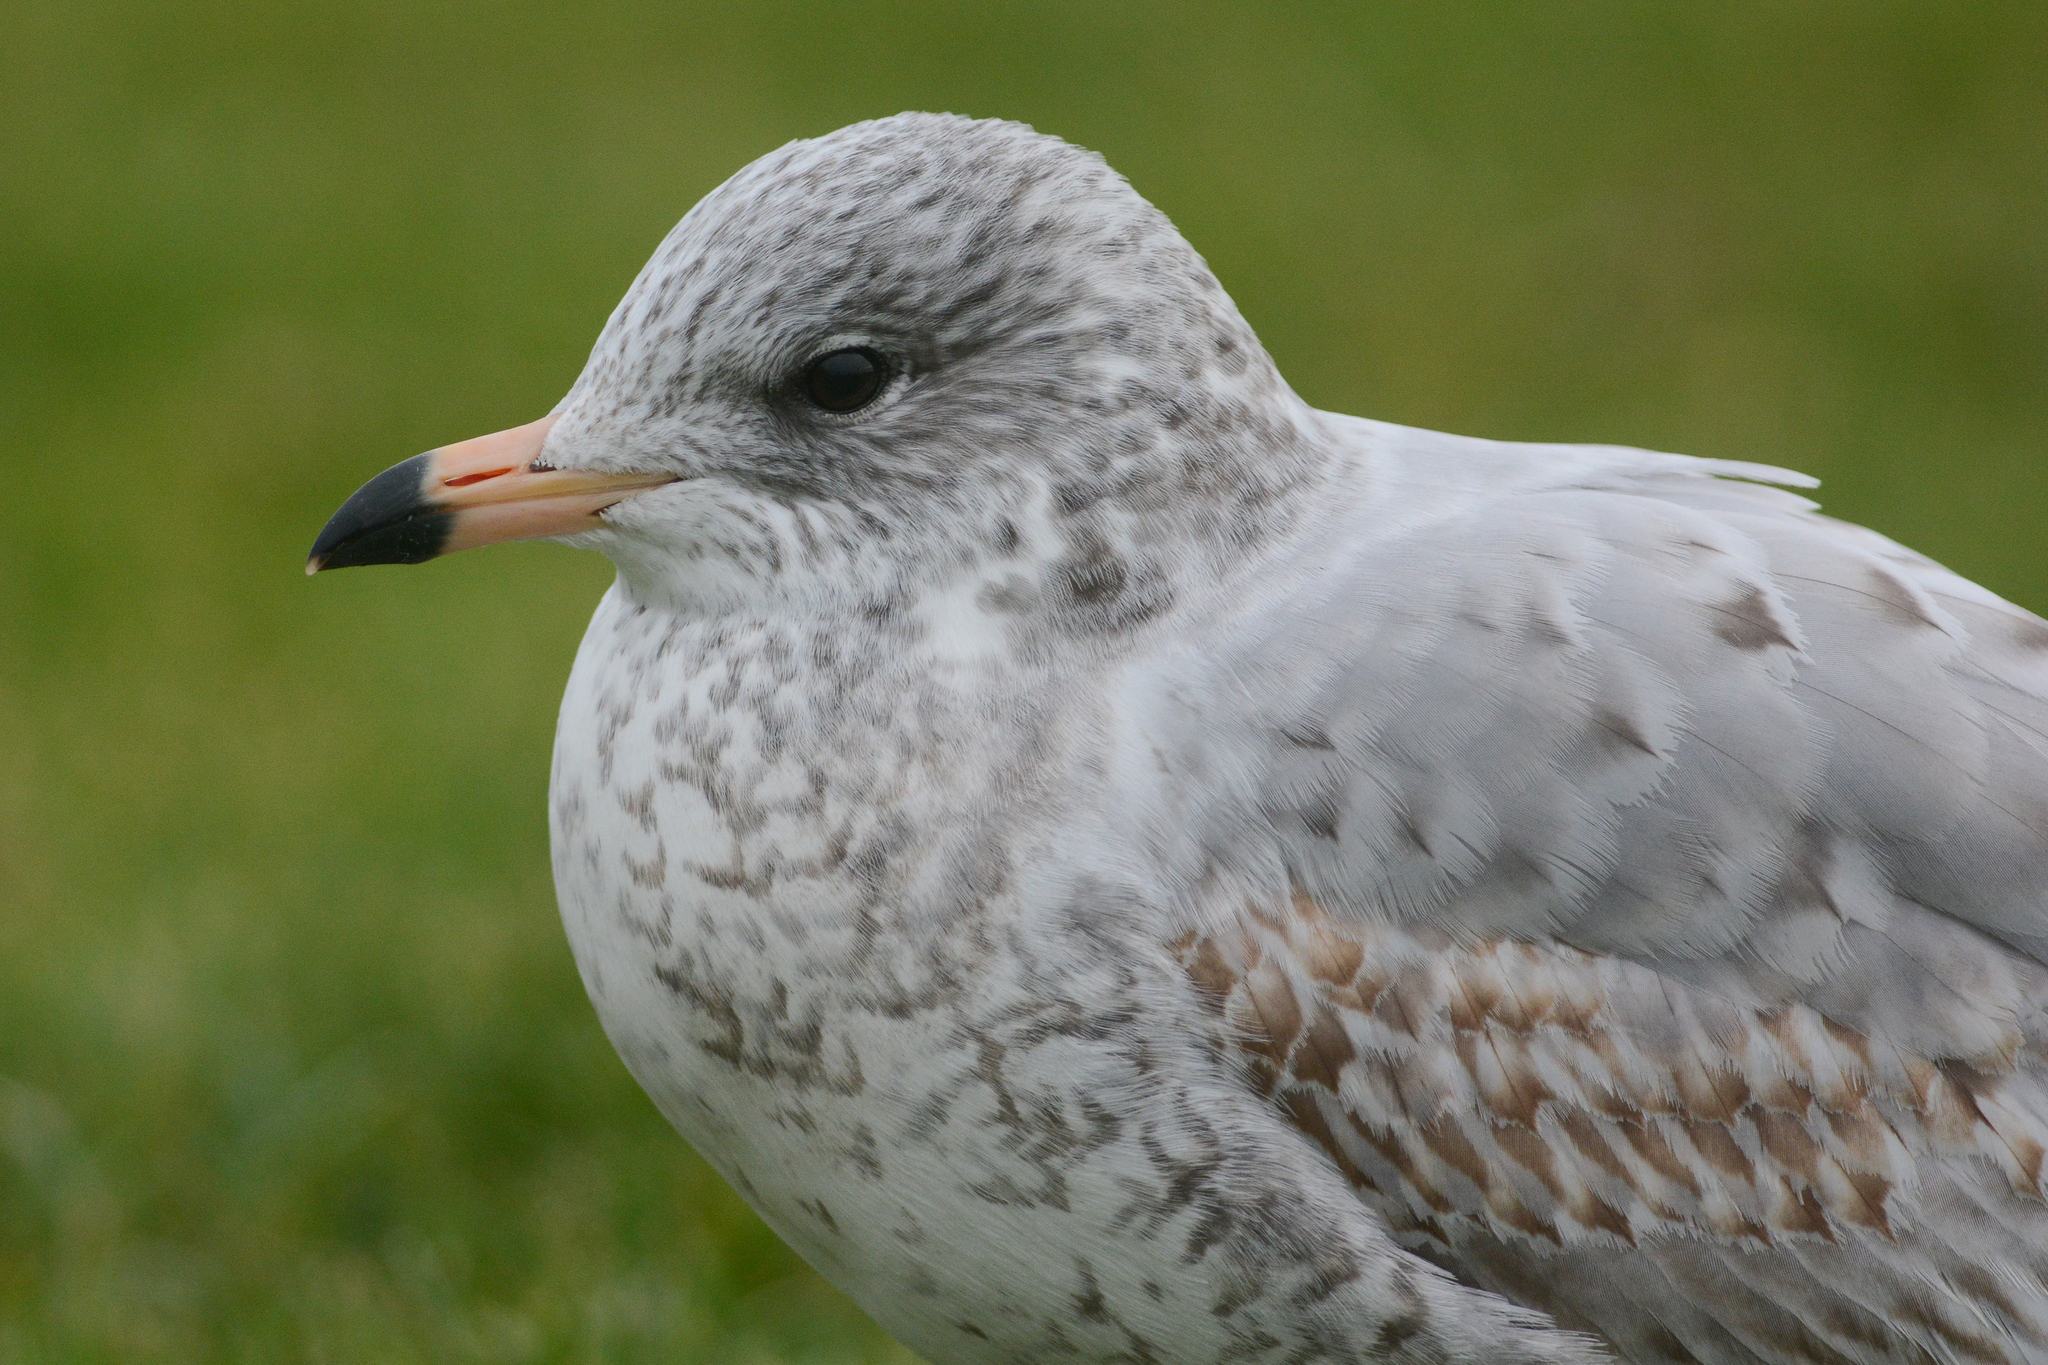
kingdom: Animalia
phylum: Chordata
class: Aves
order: Charadriiformes
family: Laridae
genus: Larus
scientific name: Larus delawarensis
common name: Ring-billed gull
